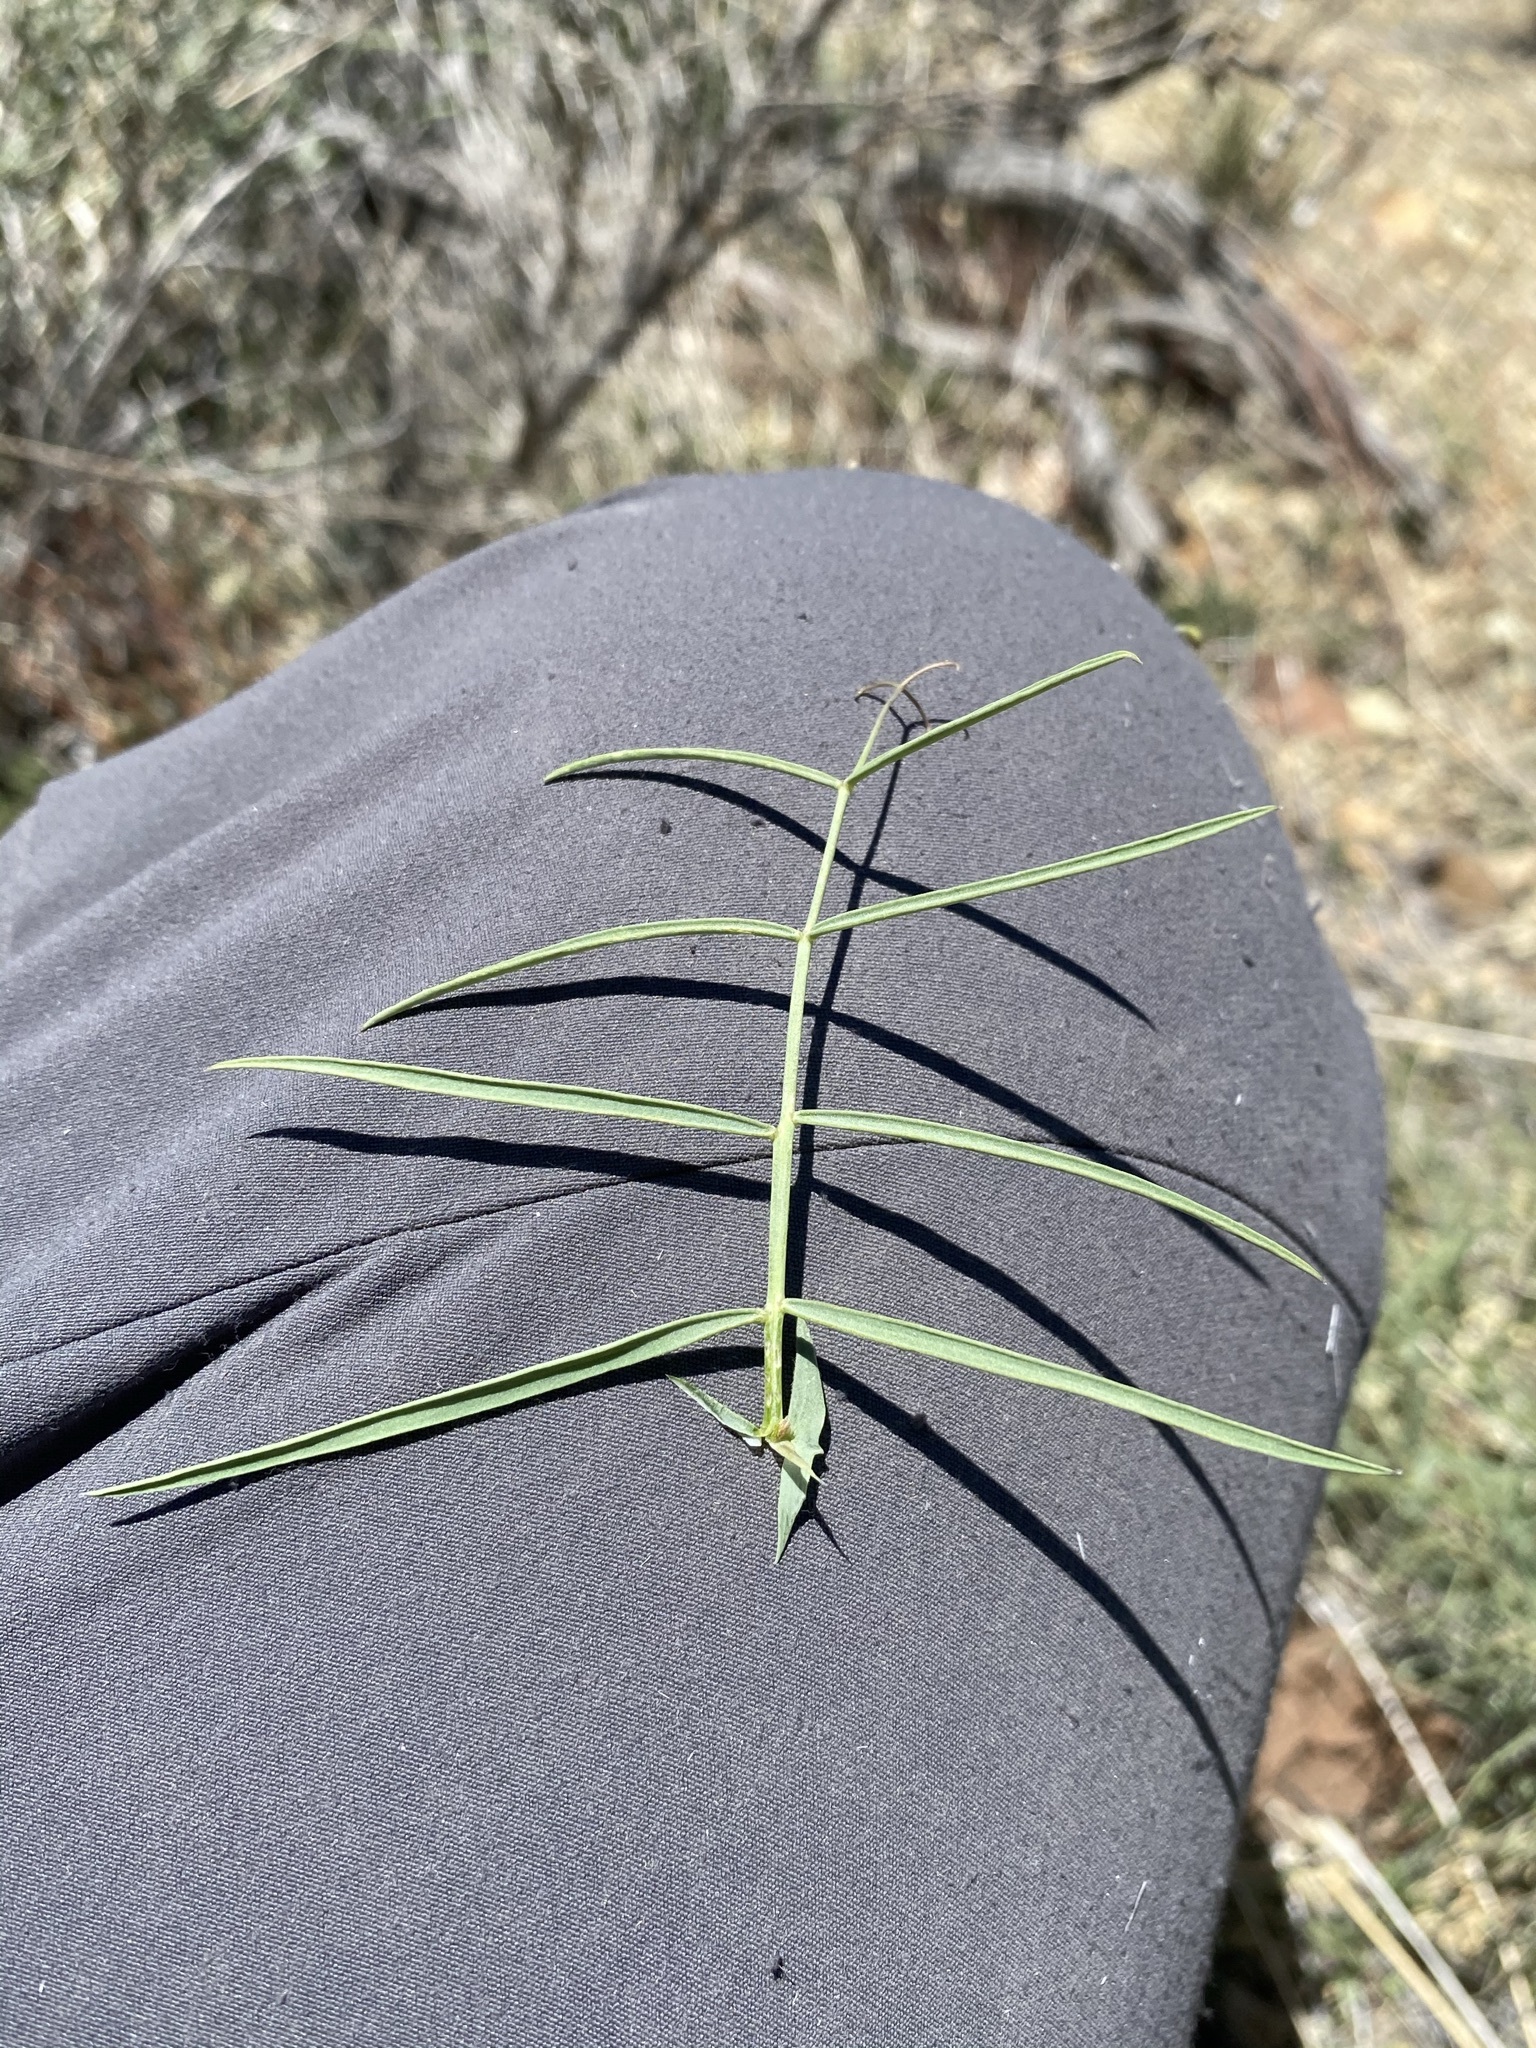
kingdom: Plantae
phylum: Tracheophyta
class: Magnoliopsida
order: Fabales
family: Fabaceae
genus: Lathyrus
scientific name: Lathyrus pauciflorus
